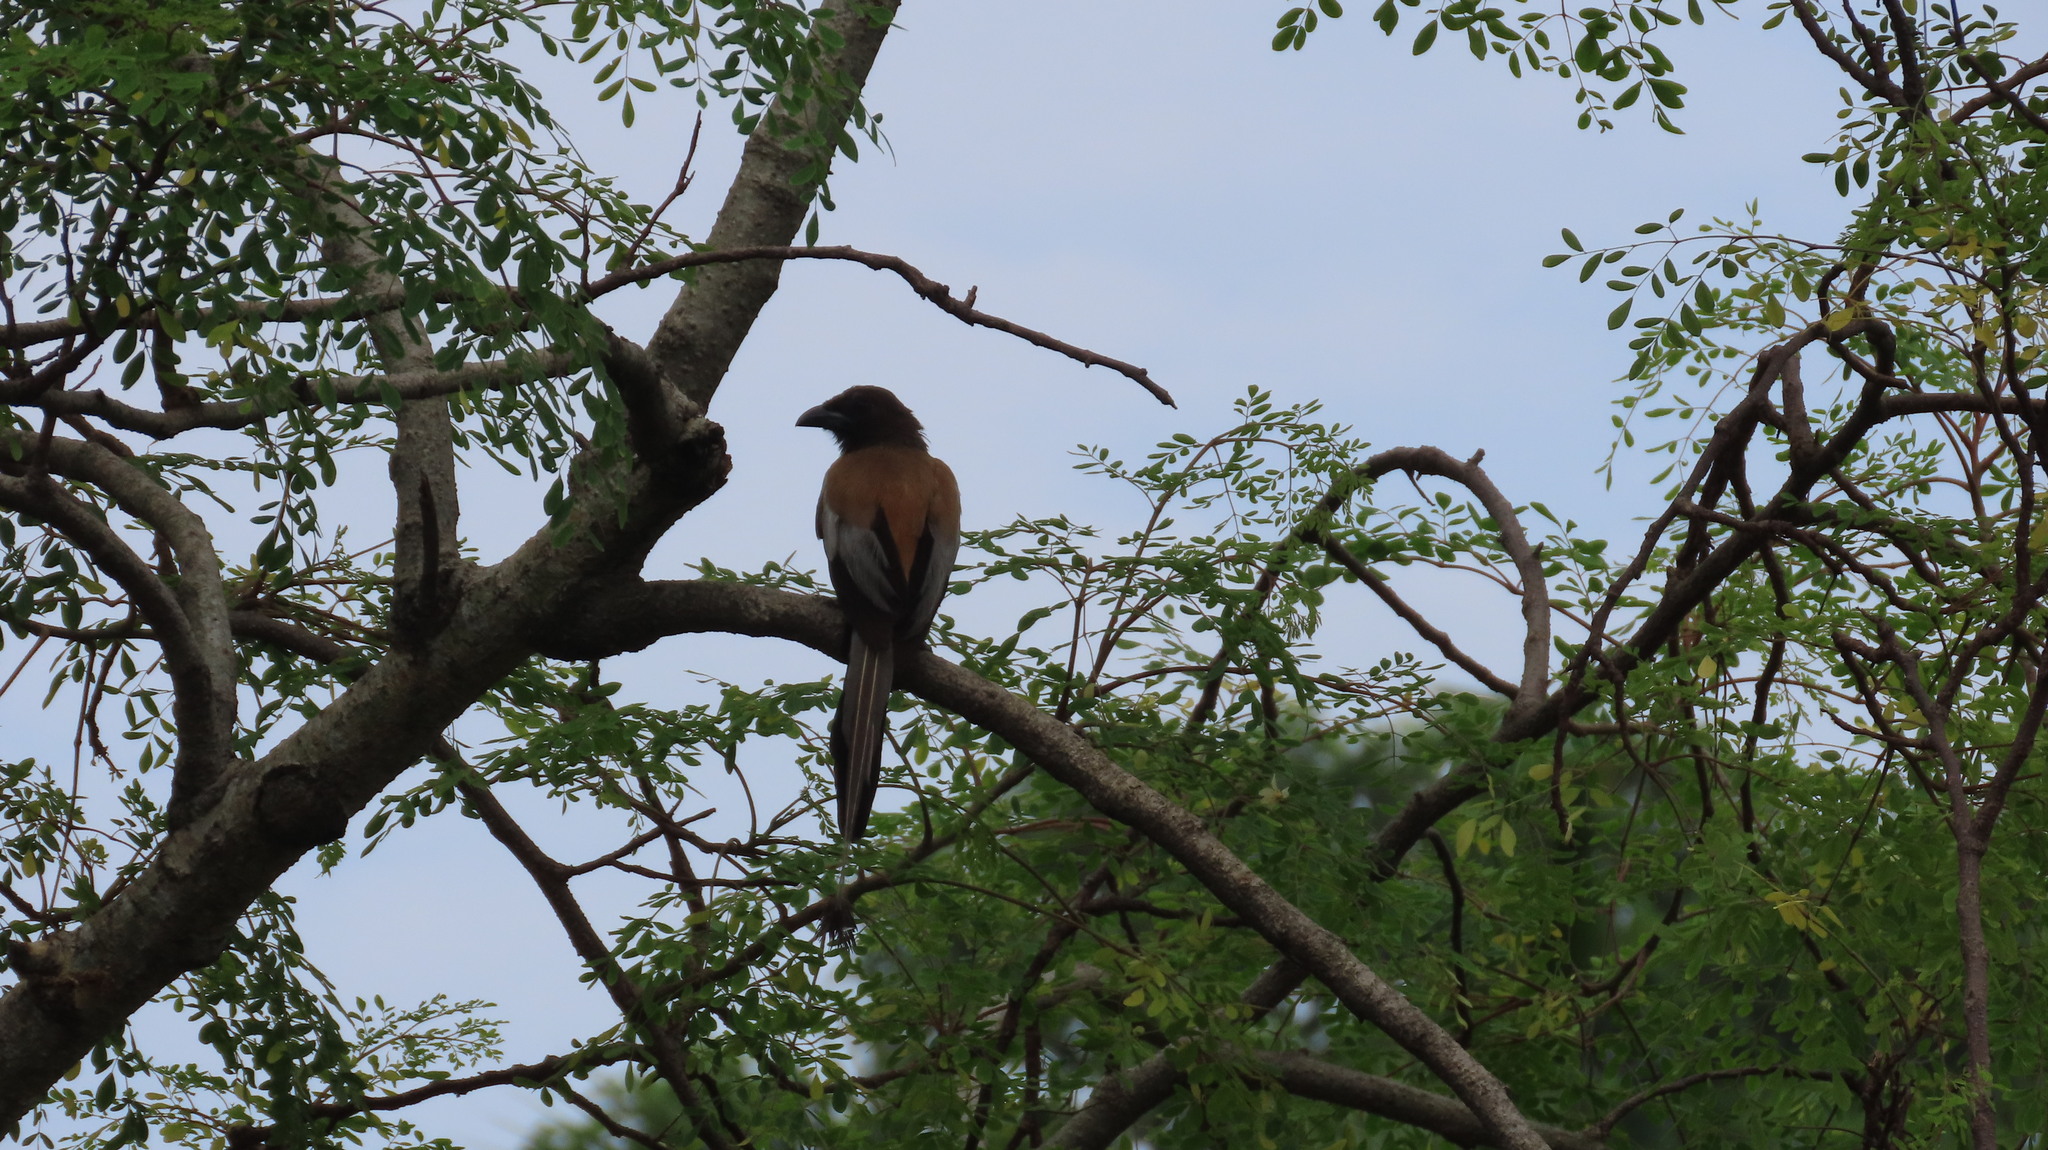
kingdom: Animalia
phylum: Chordata
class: Aves
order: Passeriformes
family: Corvidae
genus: Dendrocitta
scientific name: Dendrocitta vagabunda
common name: Rufous treepie
